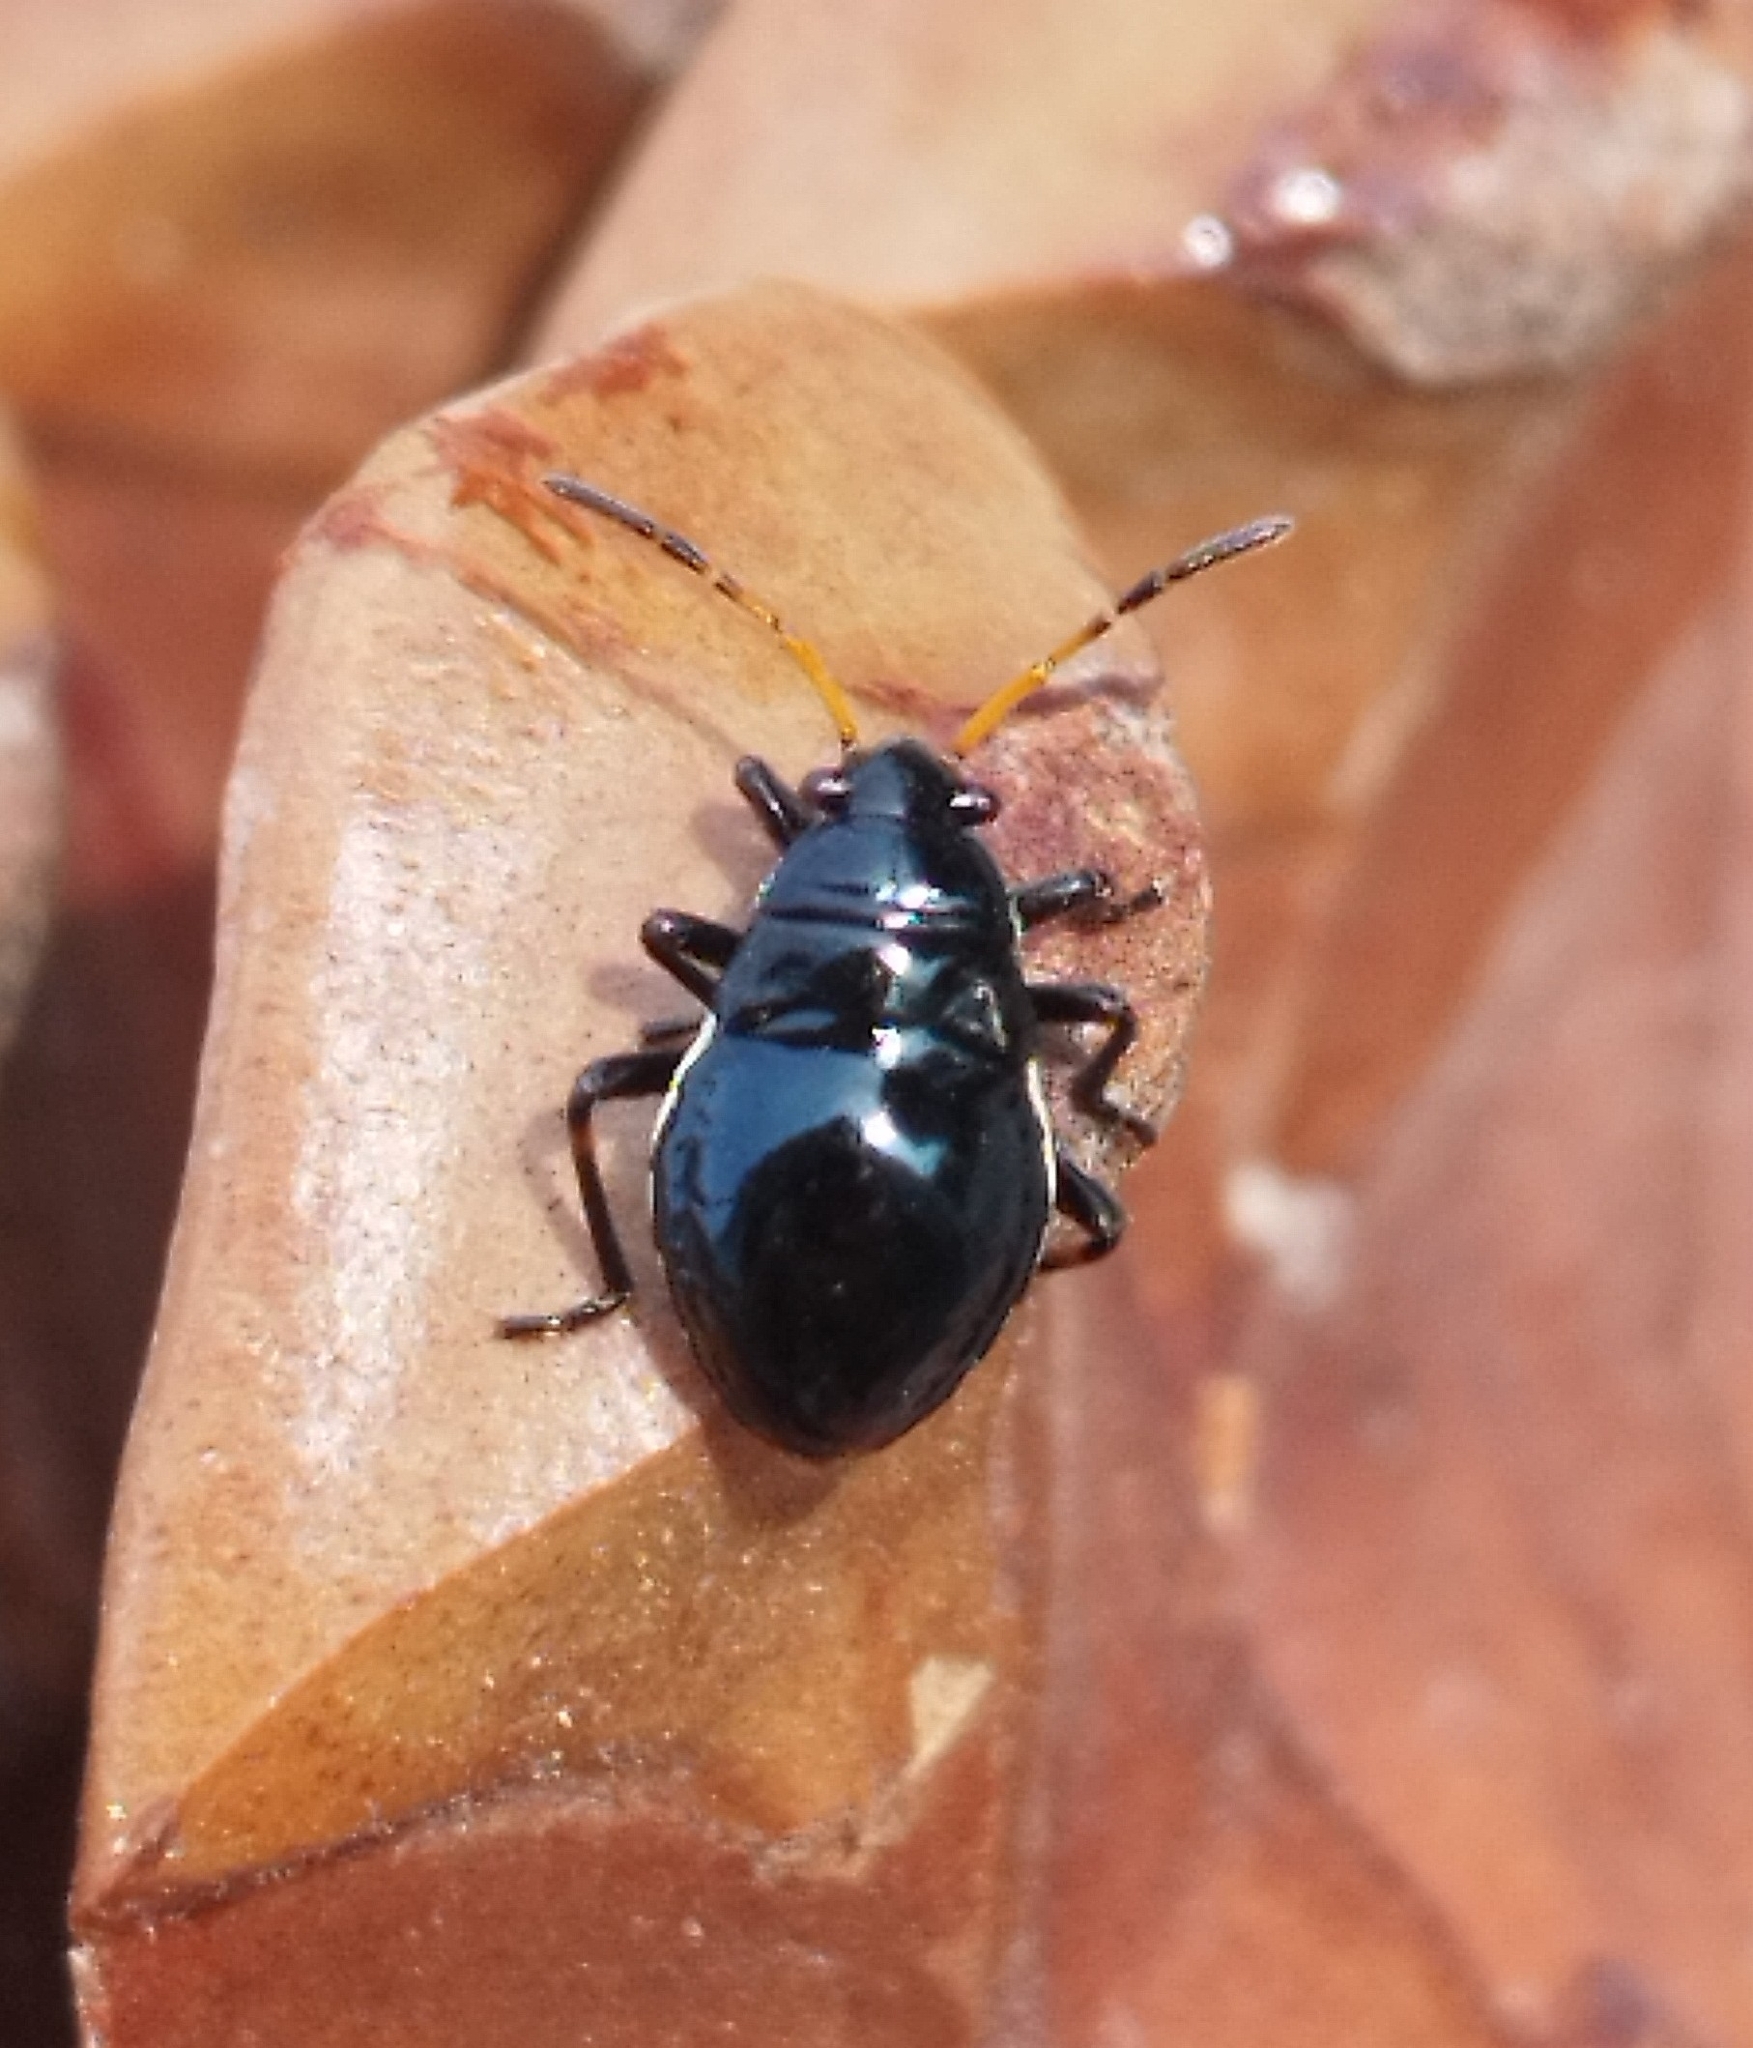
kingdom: Animalia
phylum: Arthropoda
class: Insecta
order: Hemiptera
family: Largidae
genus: Largus
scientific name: Largus fasciatus
